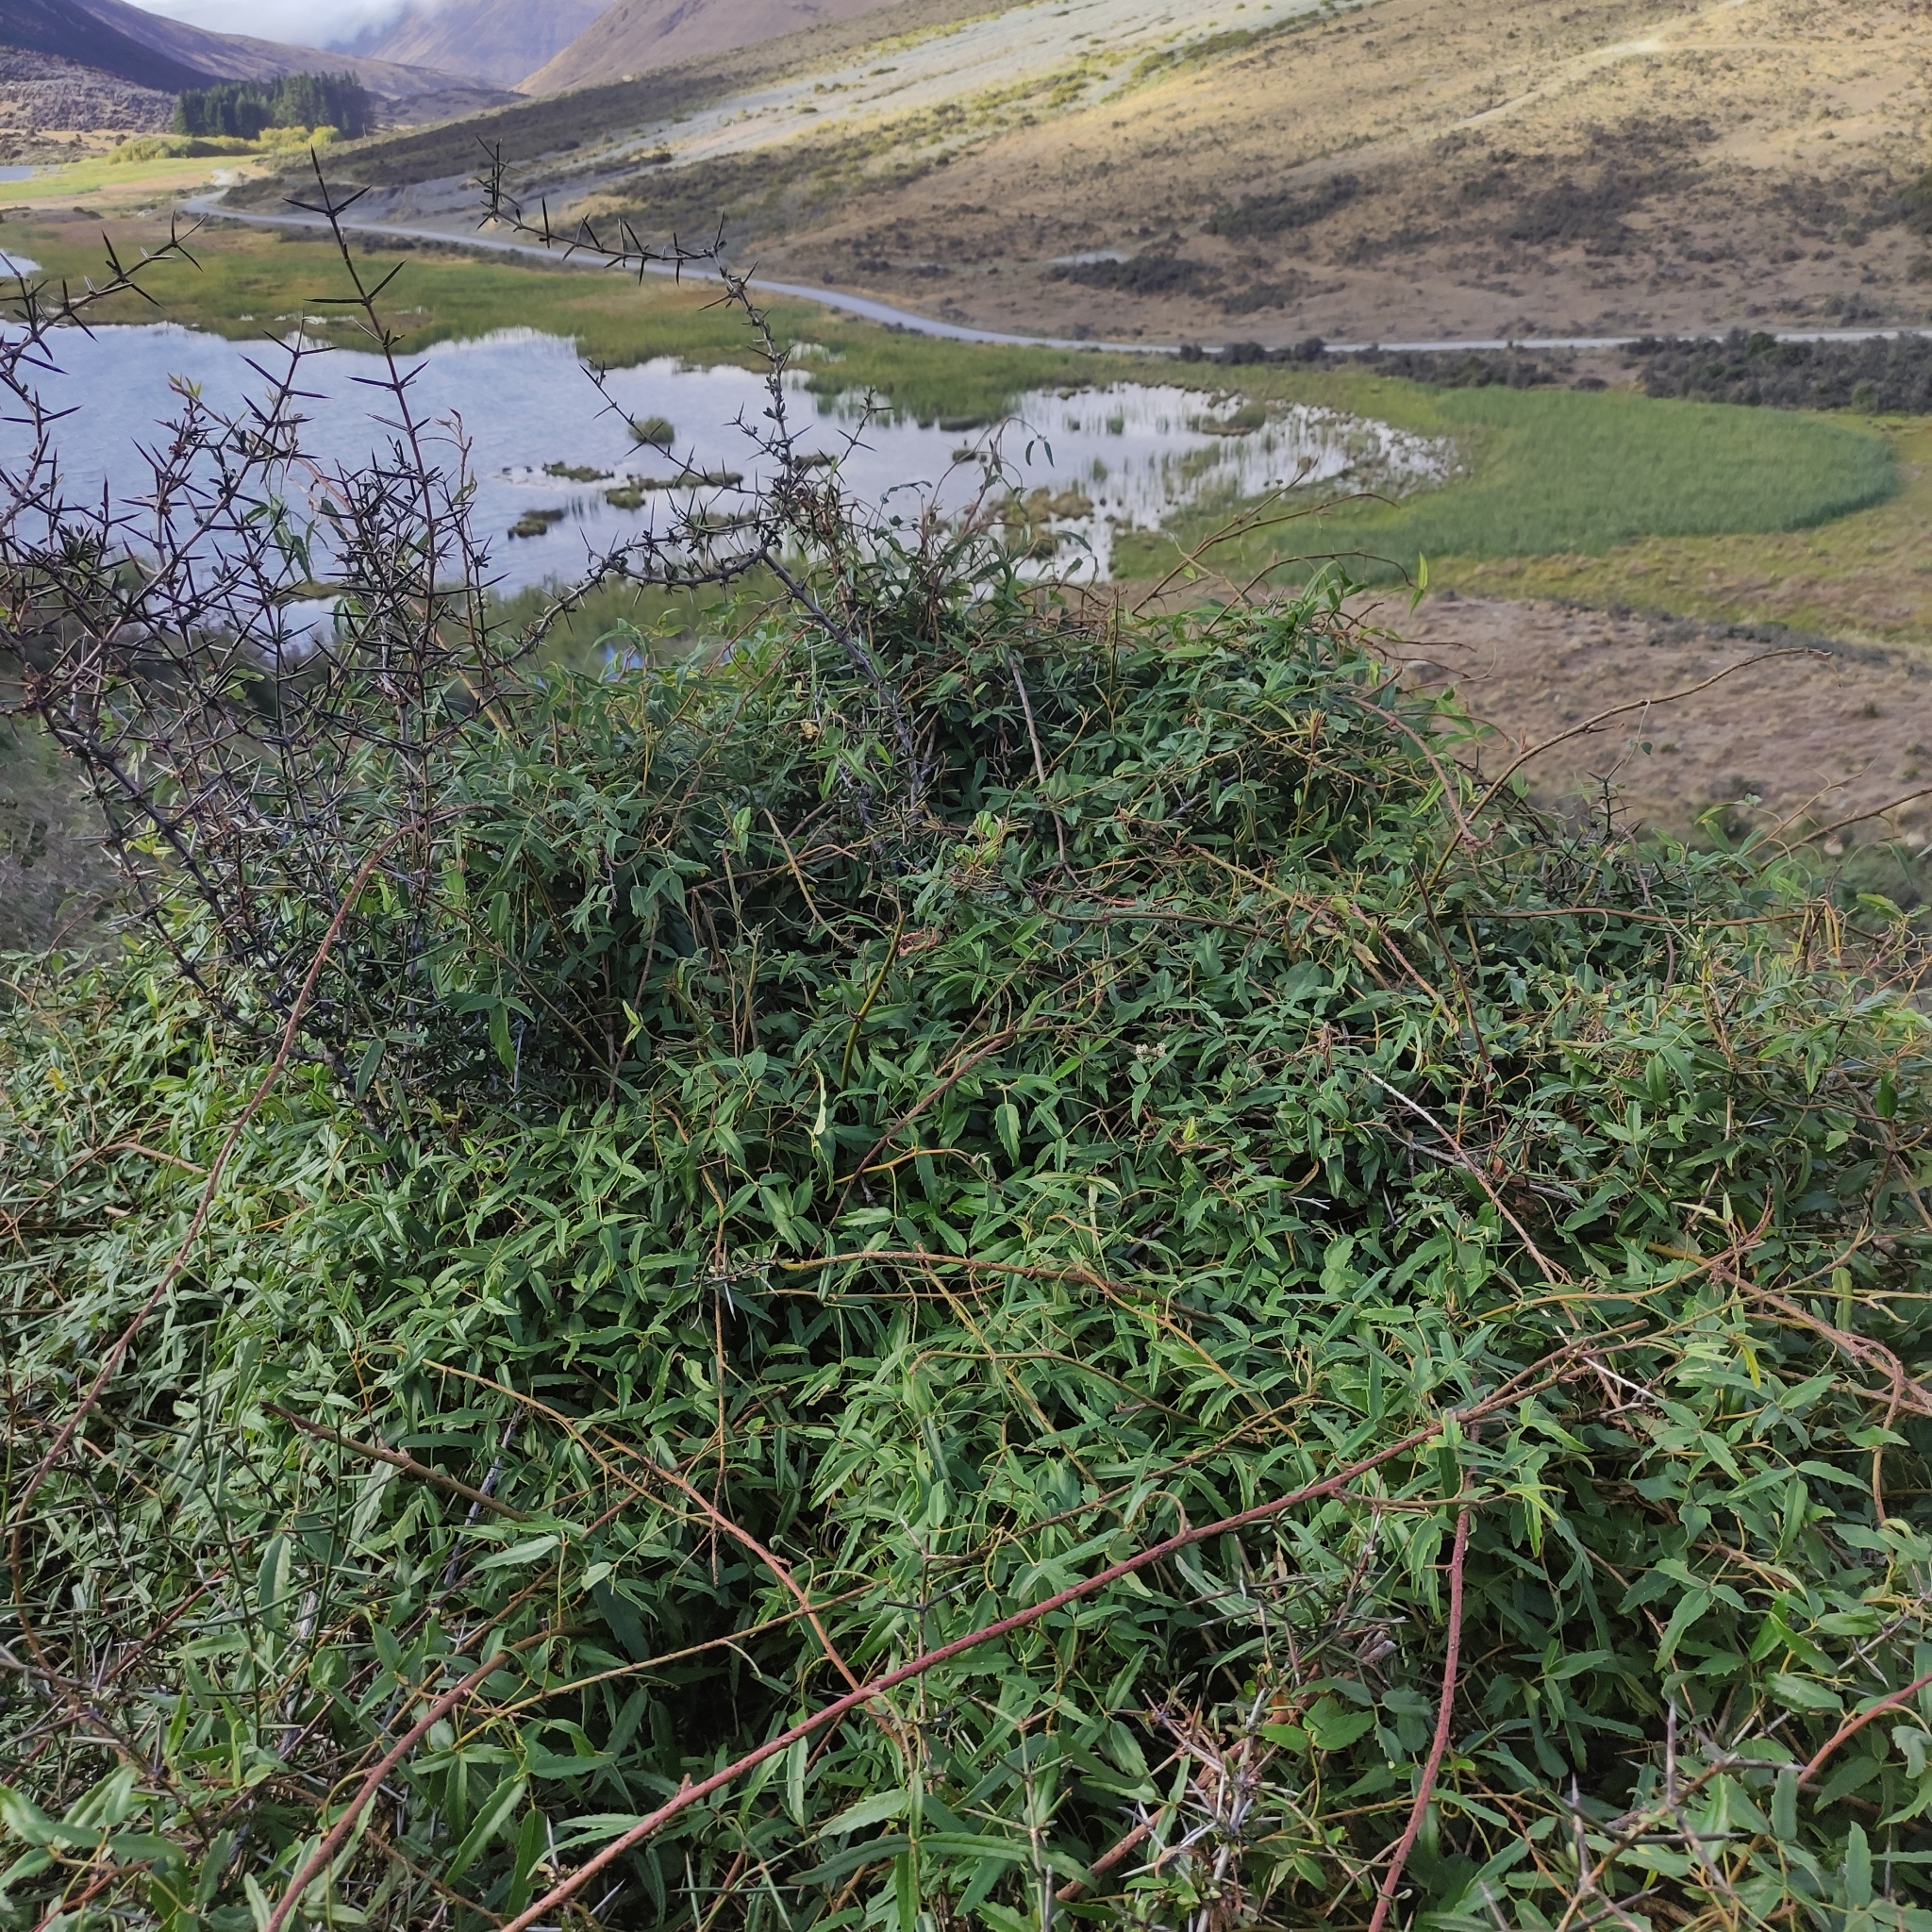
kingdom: Plantae
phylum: Tracheophyta
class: Magnoliopsida
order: Rosales
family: Rosaceae
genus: Rubus
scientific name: Rubus schmidelioides
